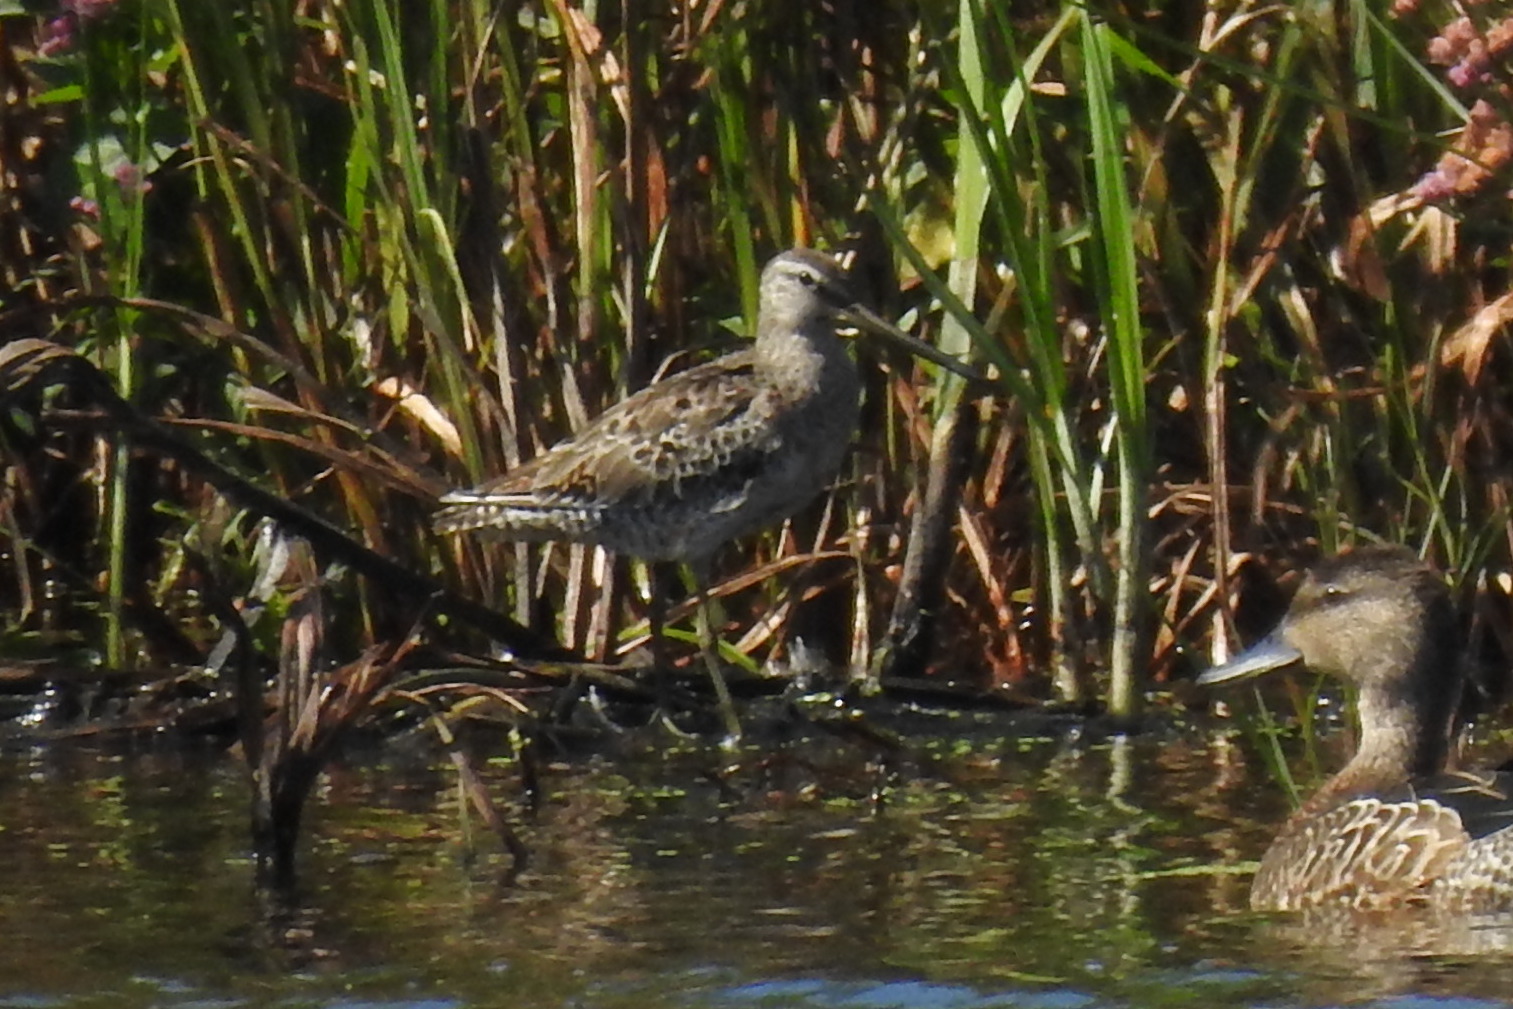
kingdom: Animalia
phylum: Chordata
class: Aves
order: Charadriiformes
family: Scolopacidae
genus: Limnodromus
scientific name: Limnodromus griseus
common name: Short-billed dowitcher
